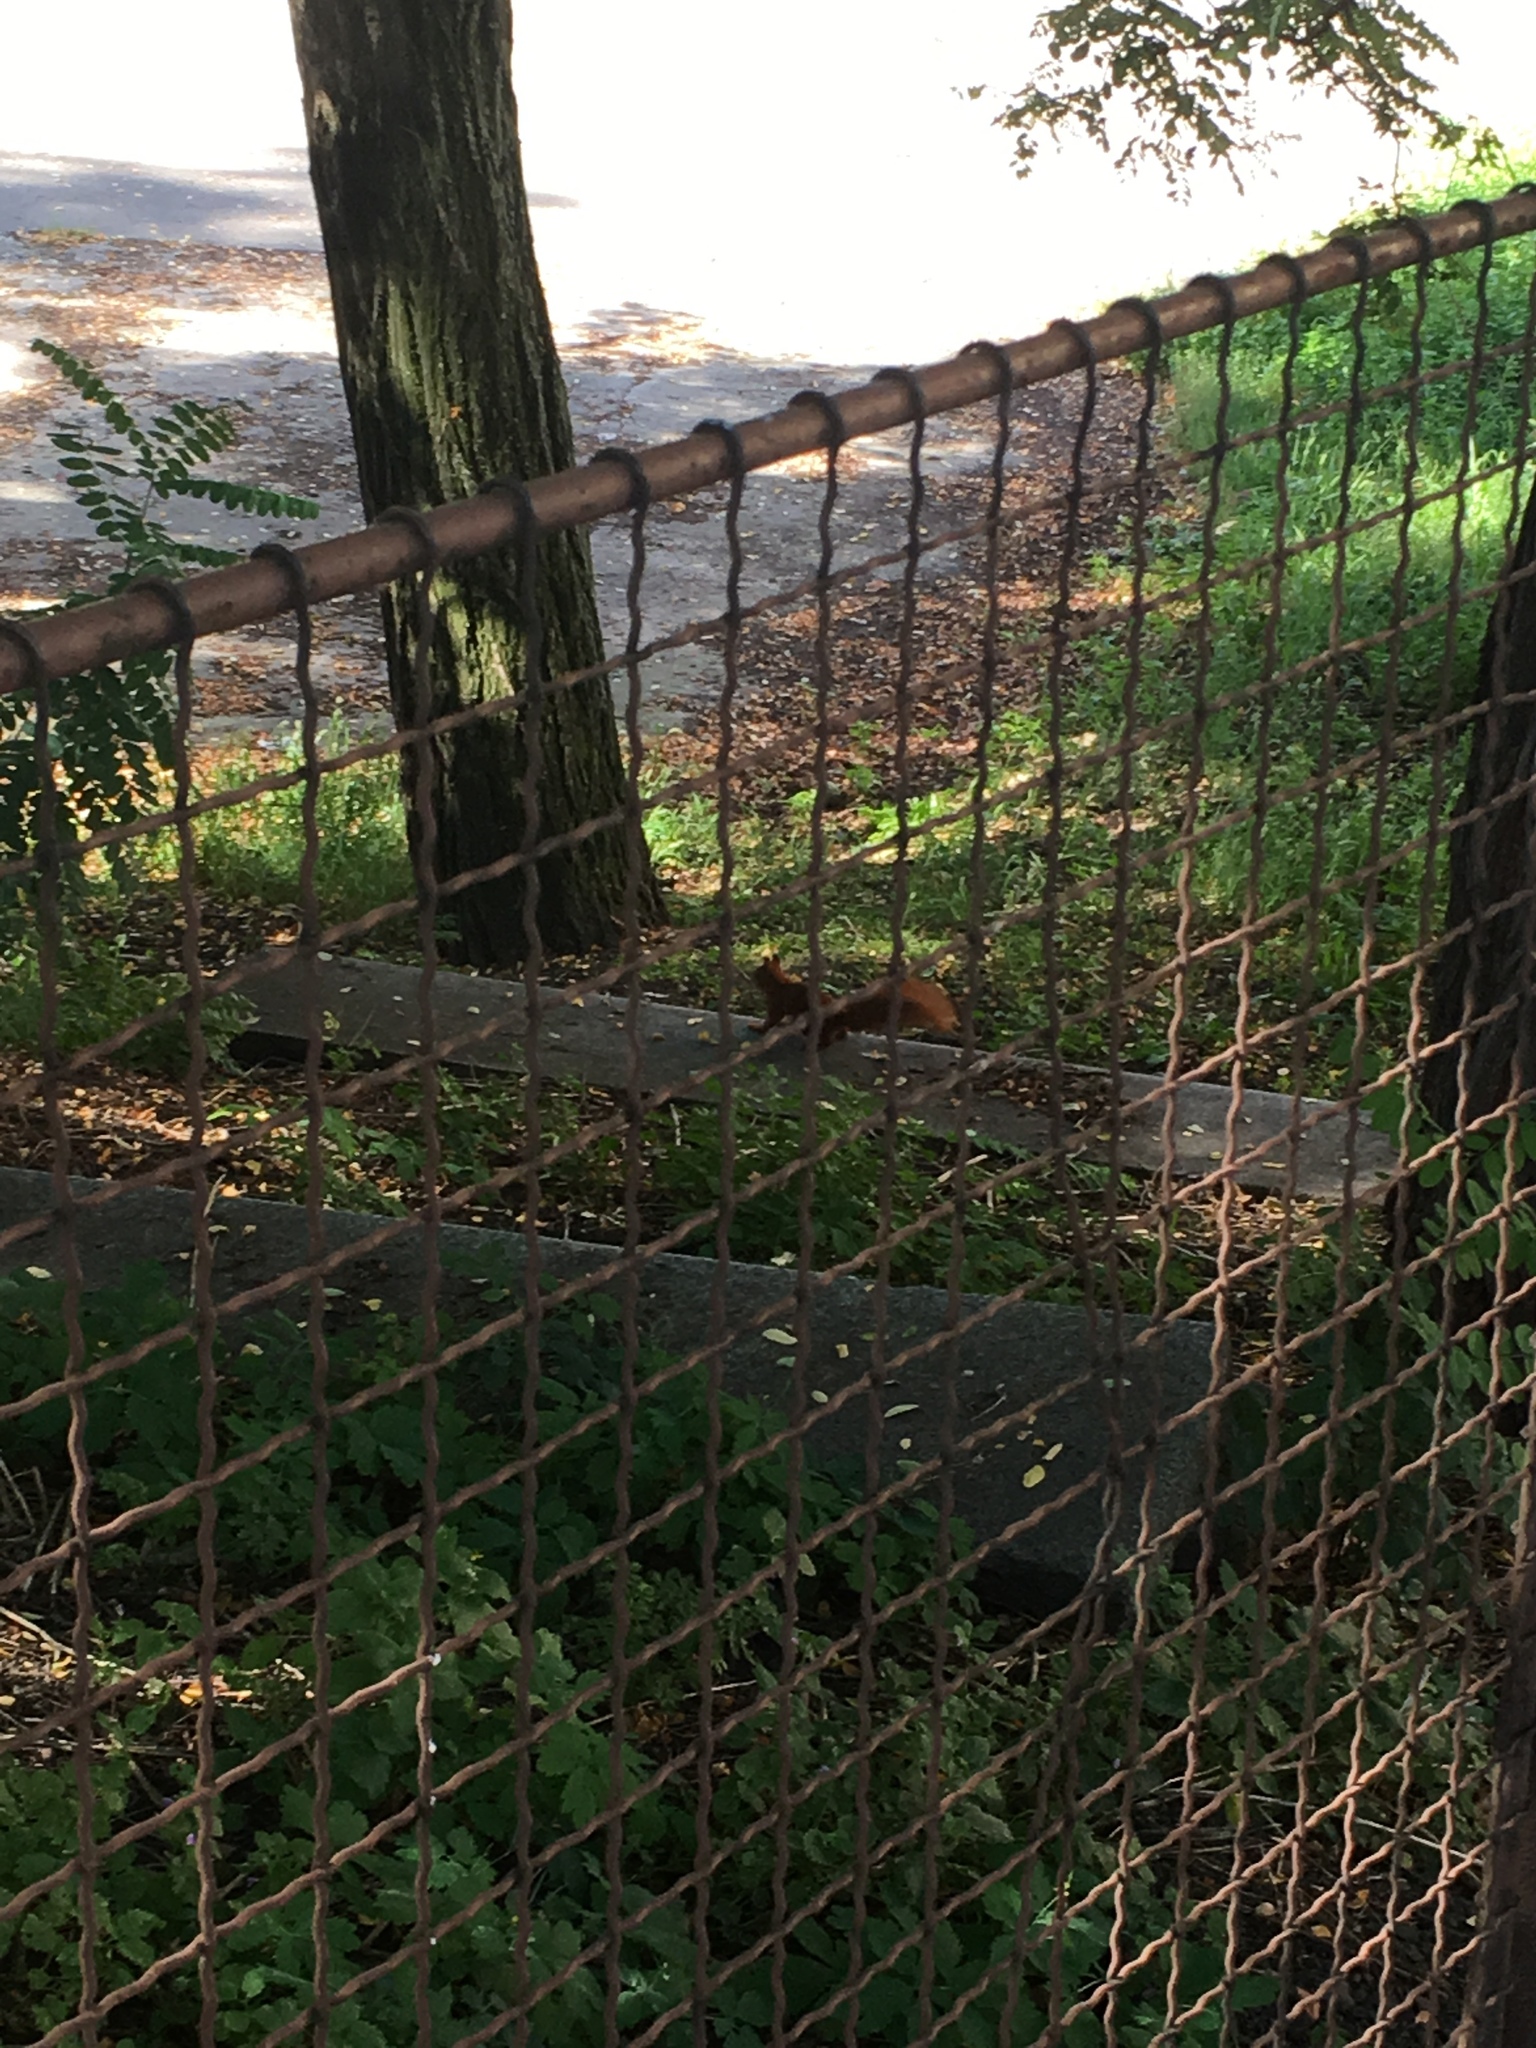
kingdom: Animalia
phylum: Chordata
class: Mammalia
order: Rodentia
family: Sciuridae
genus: Sciurus
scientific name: Sciurus vulgaris
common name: Eurasian red squirrel
